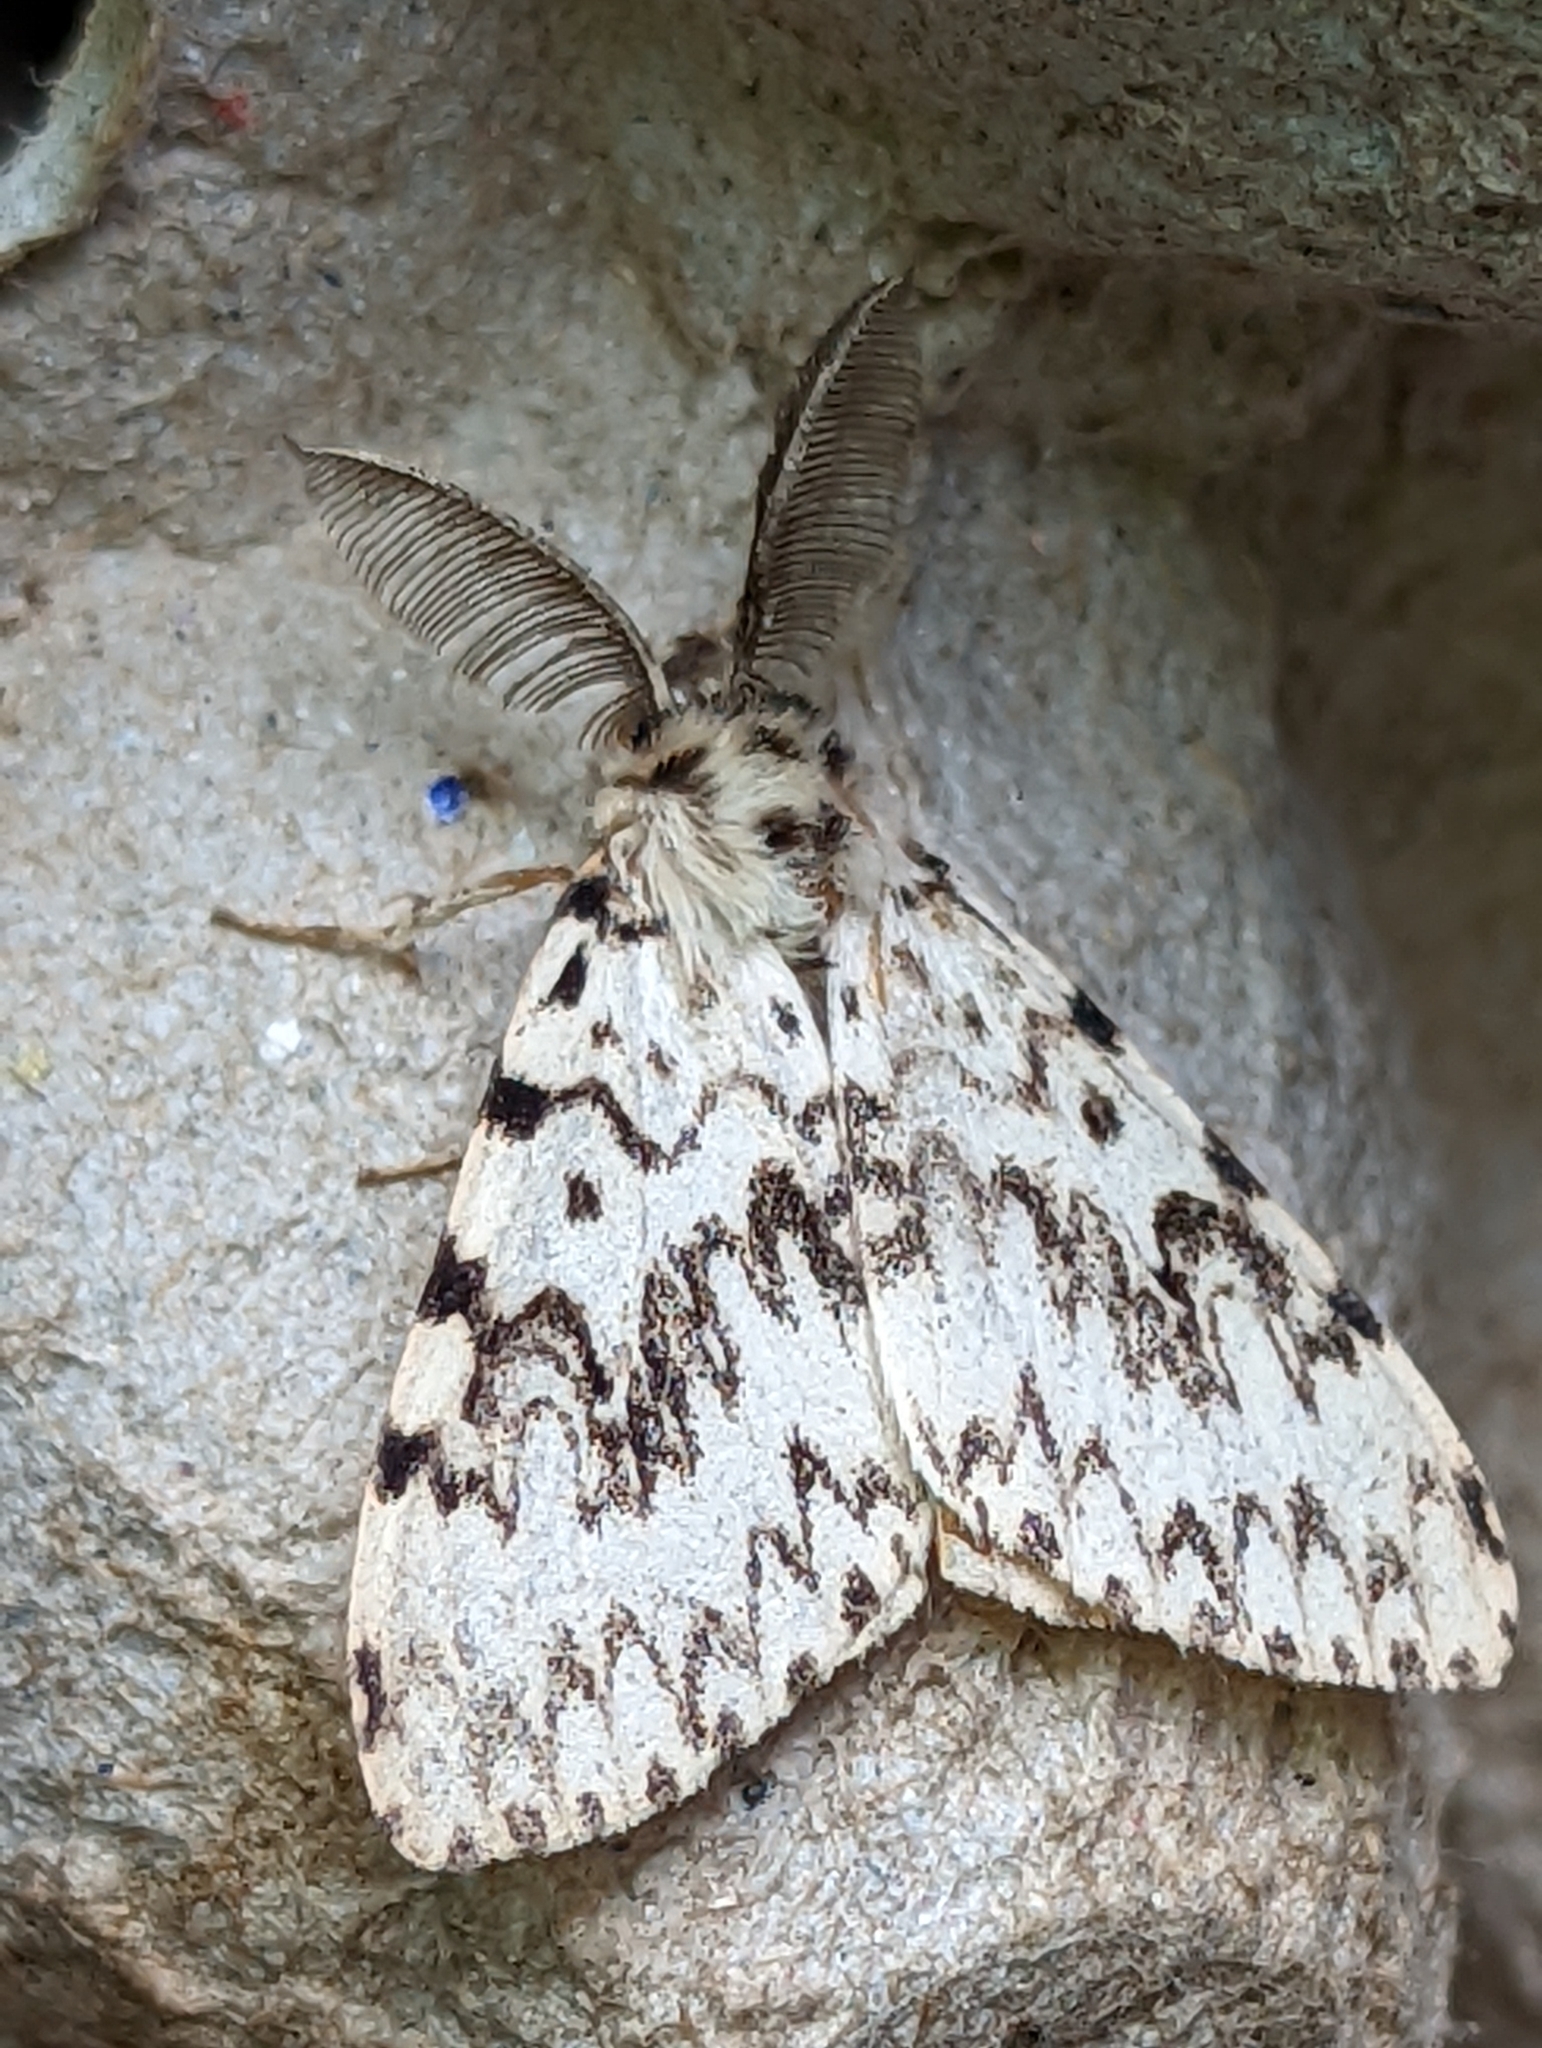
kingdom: Animalia
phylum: Arthropoda
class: Insecta
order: Lepidoptera
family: Erebidae
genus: Lymantria
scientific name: Lymantria monacha
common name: Black arches
